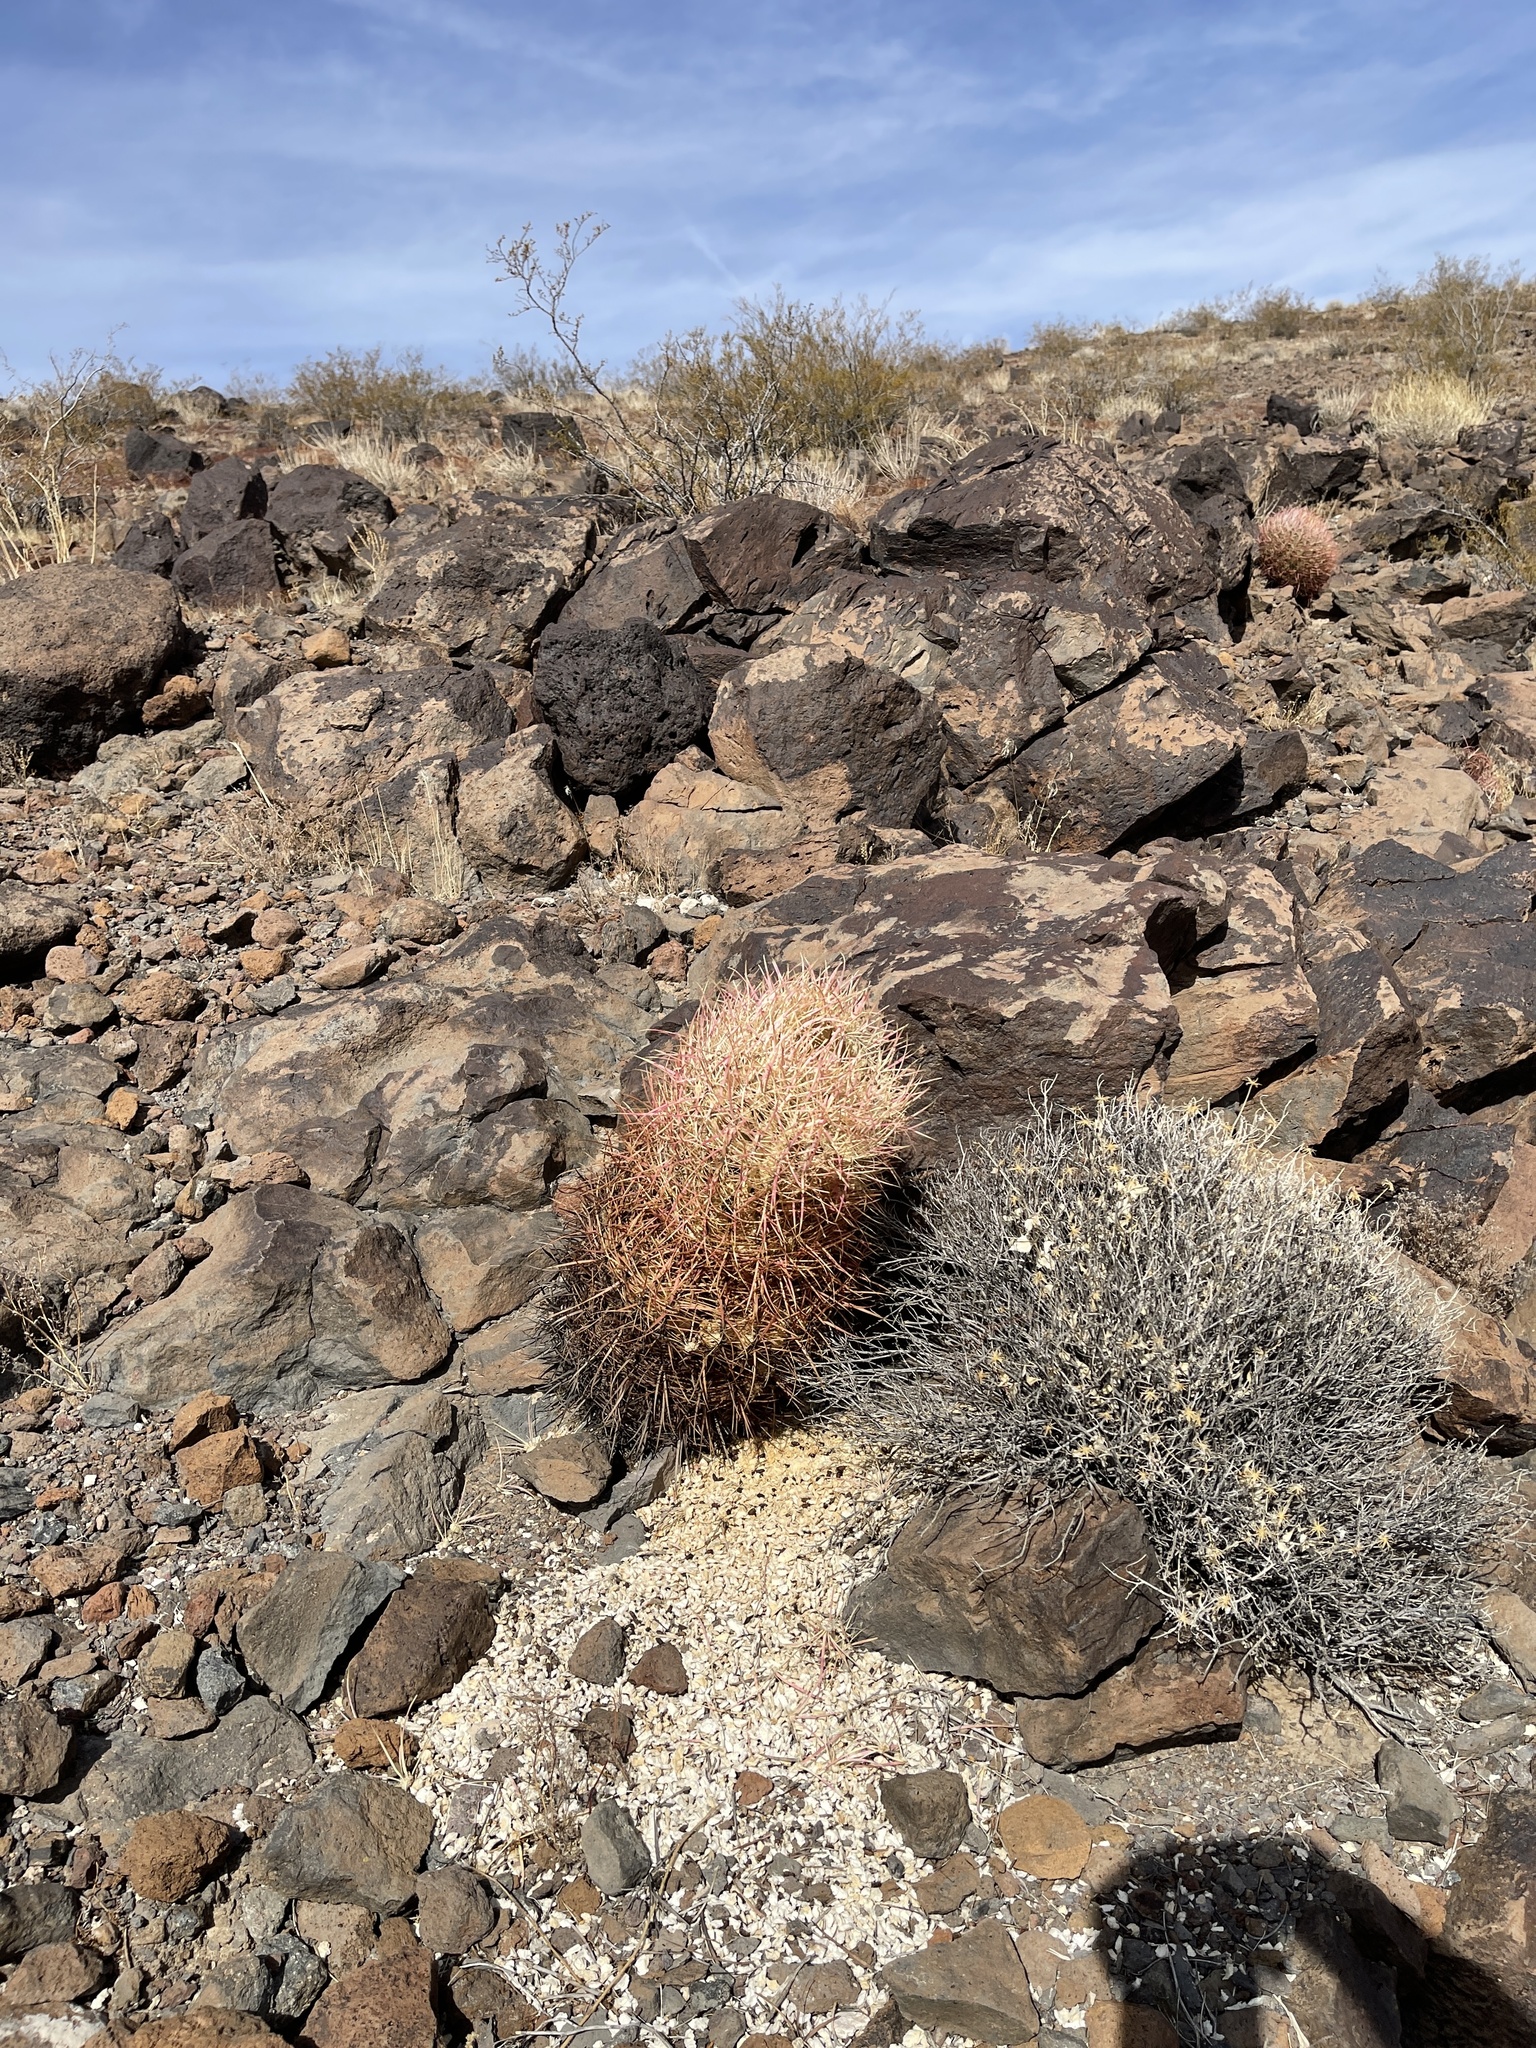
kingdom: Plantae
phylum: Tracheophyta
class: Magnoliopsida
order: Caryophyllales
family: Cactaceae
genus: Ferocactus
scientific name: Ferocactus cylindraceus
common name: California barrel cactus
